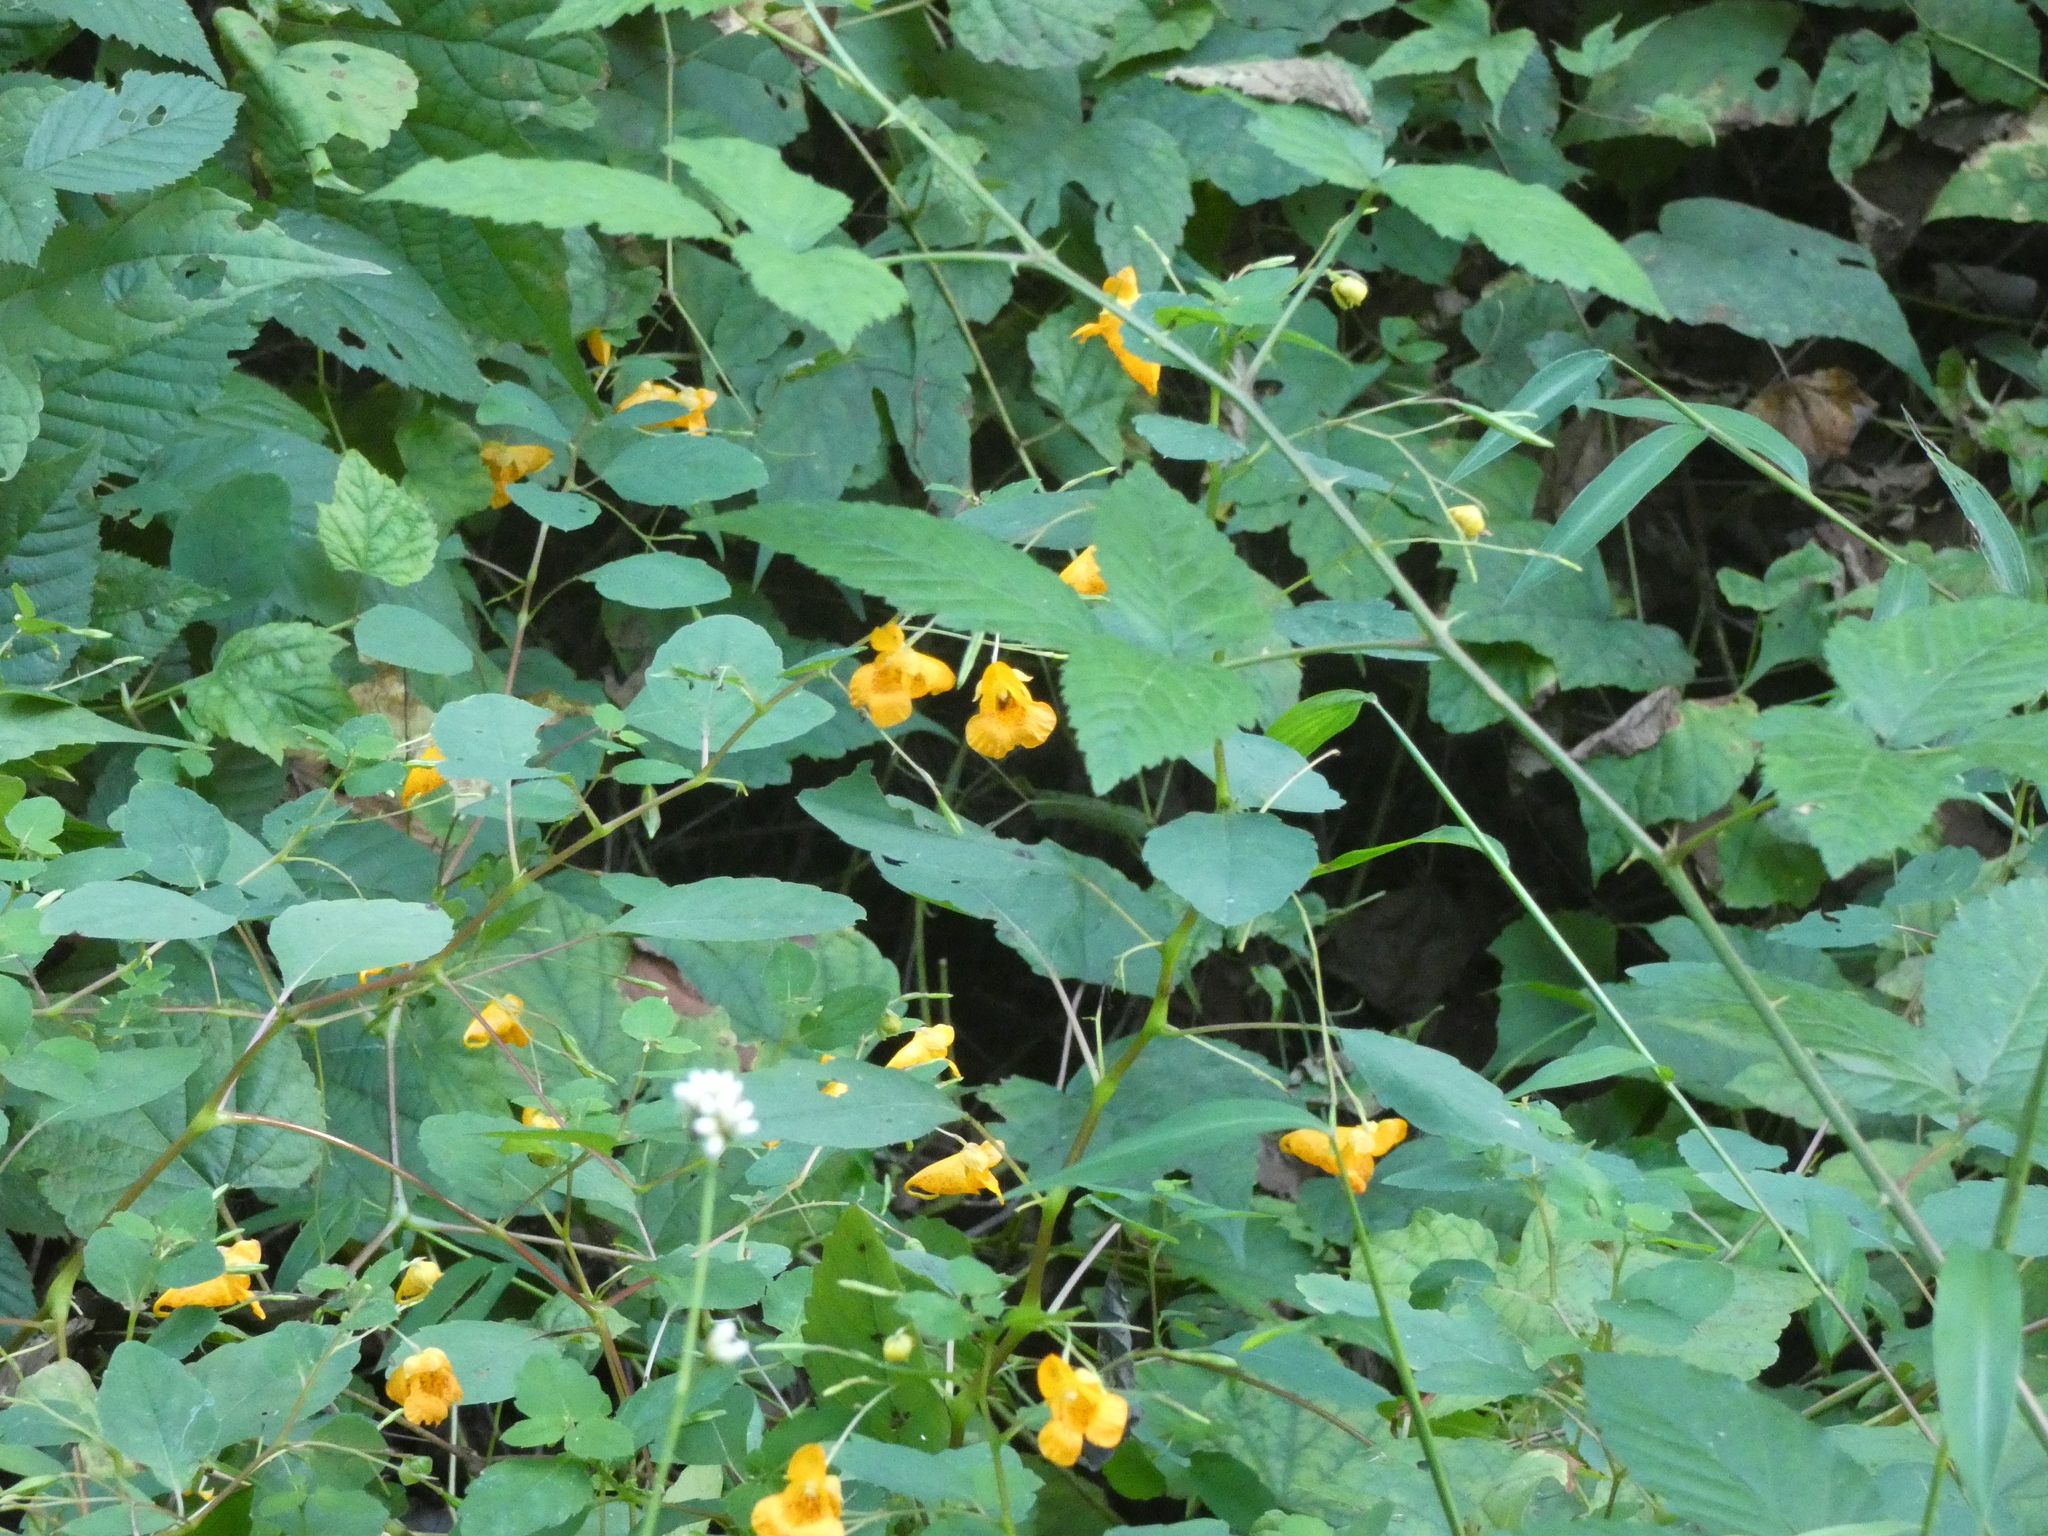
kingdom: Plantae
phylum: Tracheophyta
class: Magnoliopsida
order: Ericales
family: Balsaminaceae
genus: Impatiens
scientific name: Impatiens capensis
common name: Orange balsam
